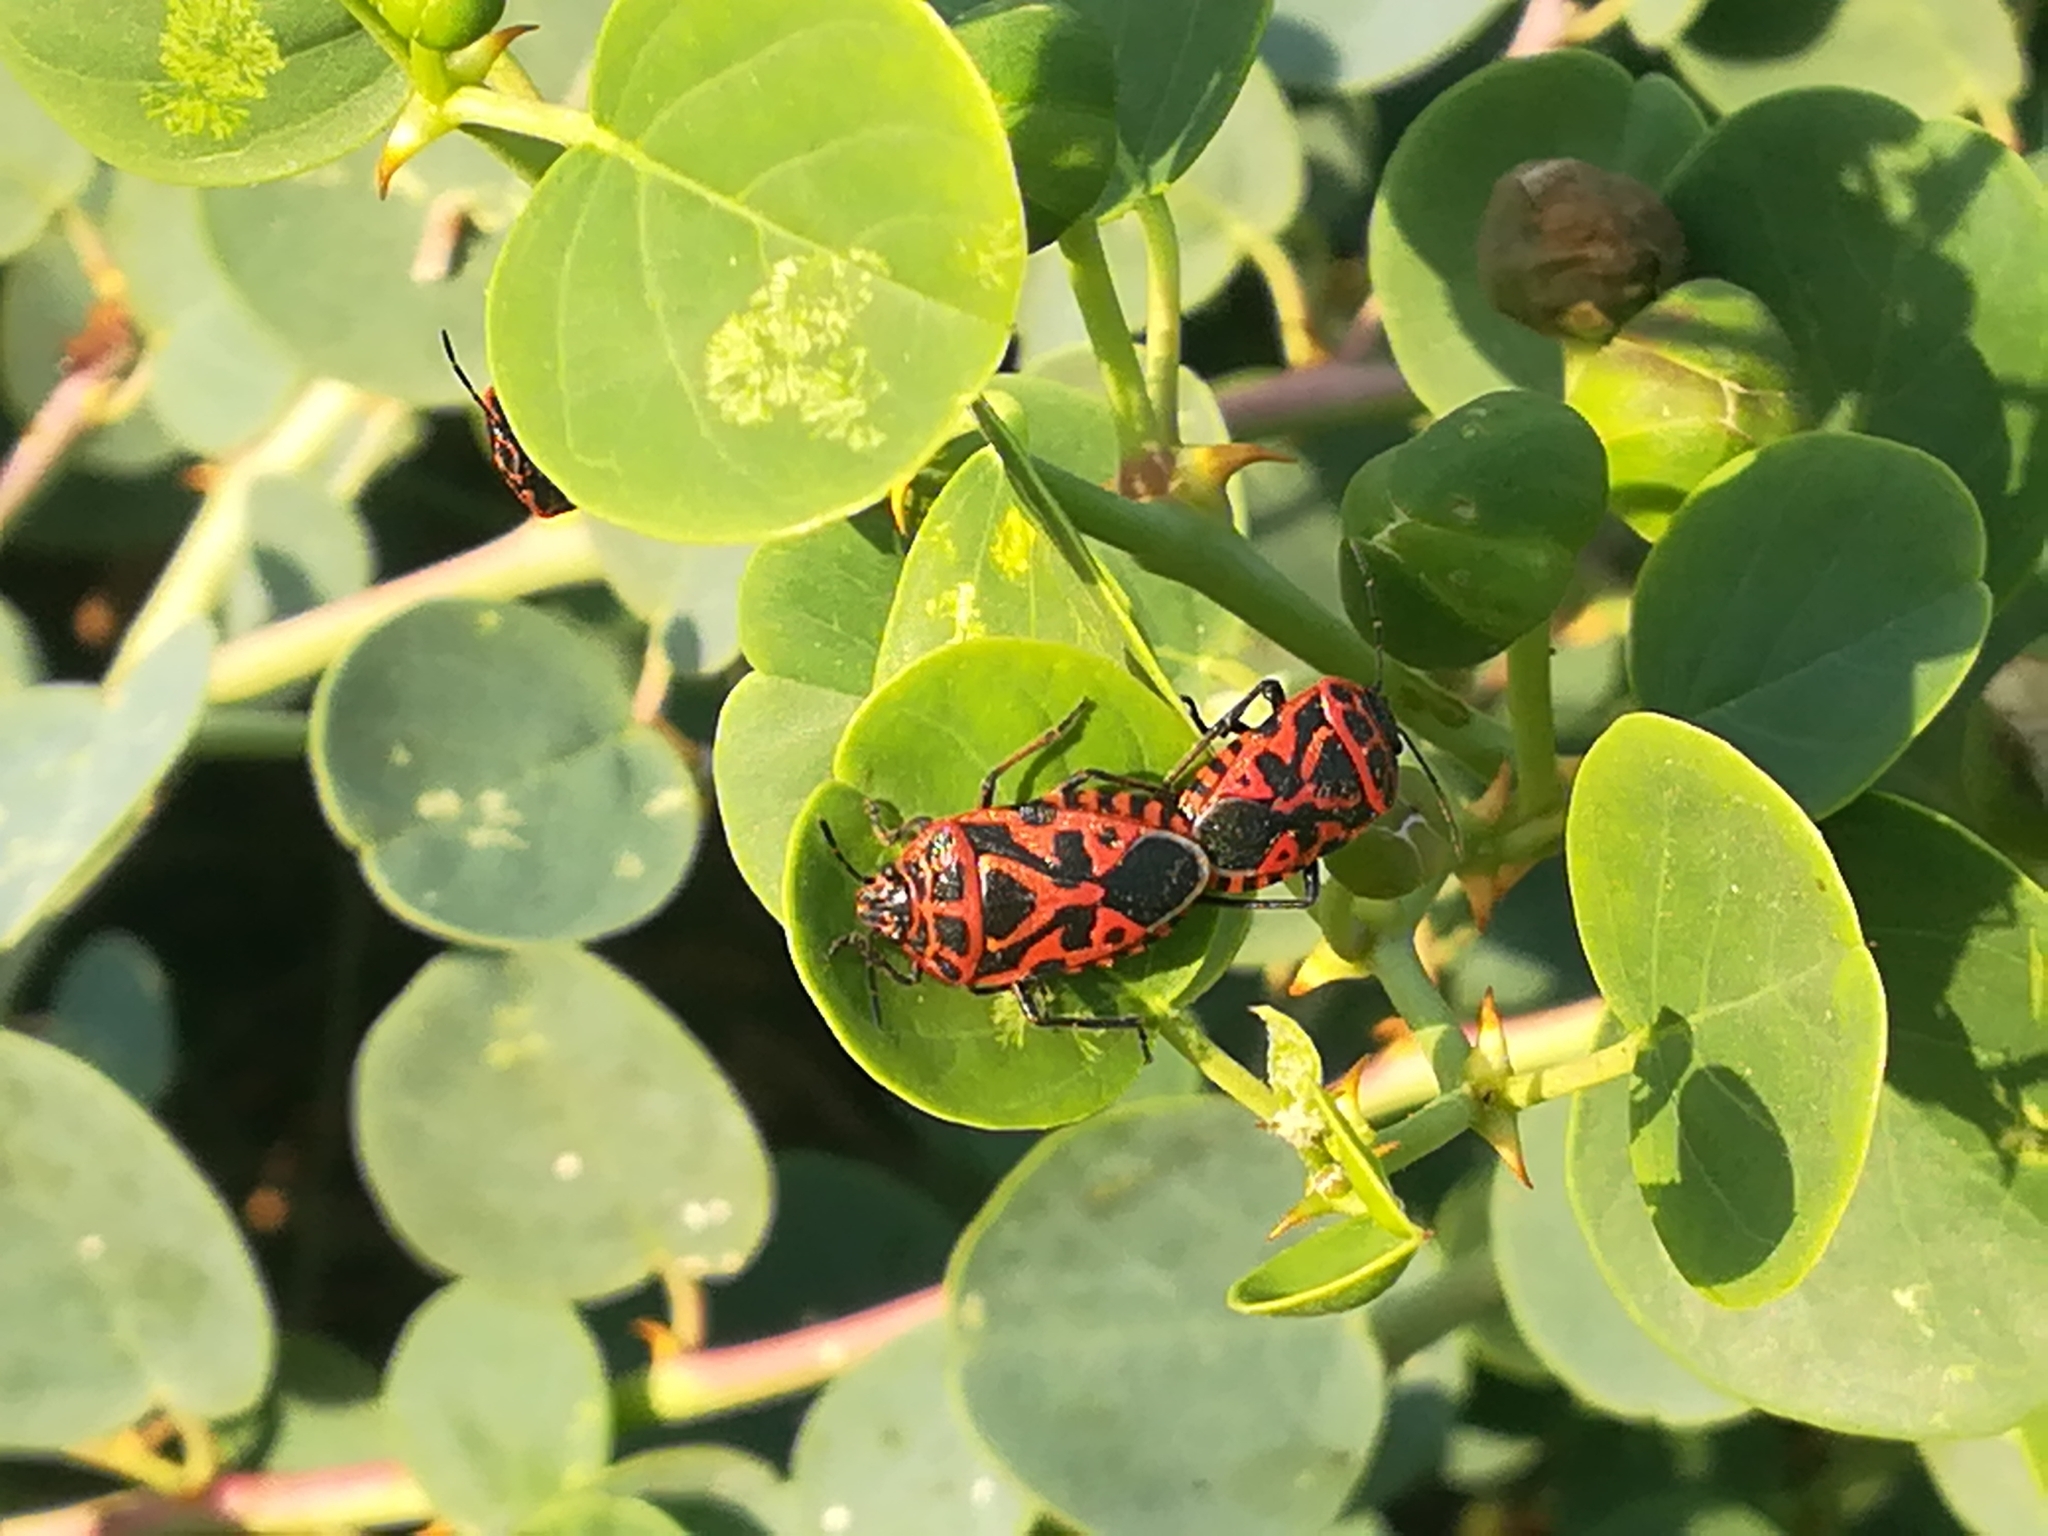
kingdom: Animalia
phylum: Arthropoda
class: Insecta
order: Hemiptera
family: Pentatomidae
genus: Eurydema
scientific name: Eurydema ventralis
